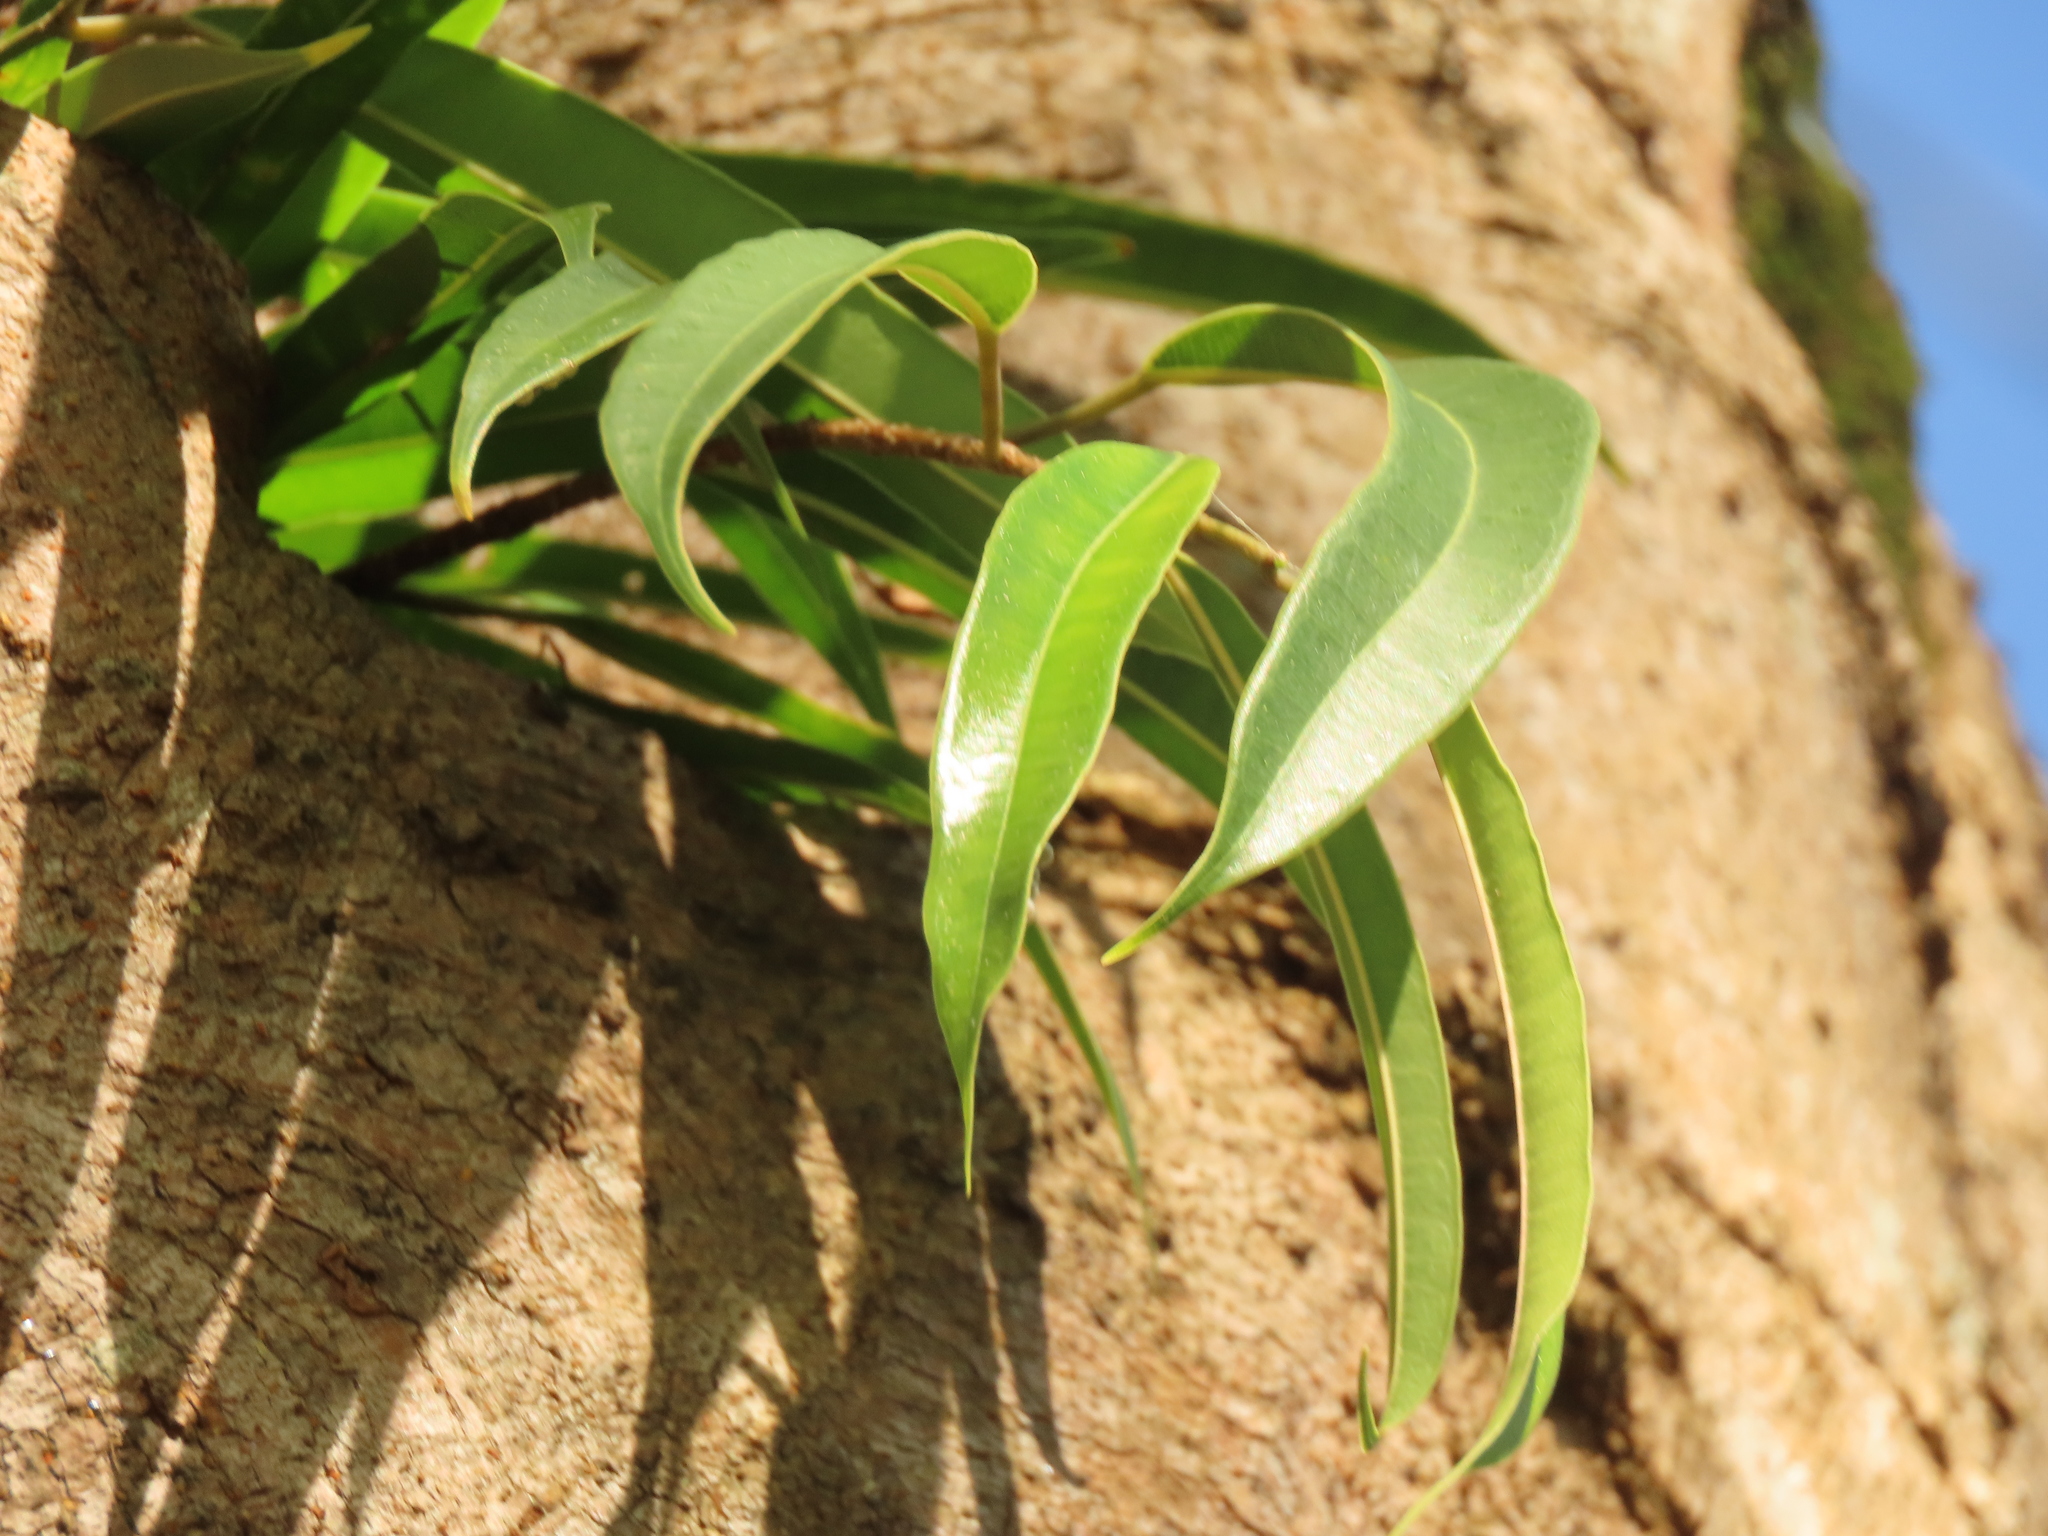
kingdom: Plantae
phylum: Tracheophyta
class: Magnoliopsida
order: Rosales
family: Moraceae
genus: Ficus
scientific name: Ficus maclellandii
